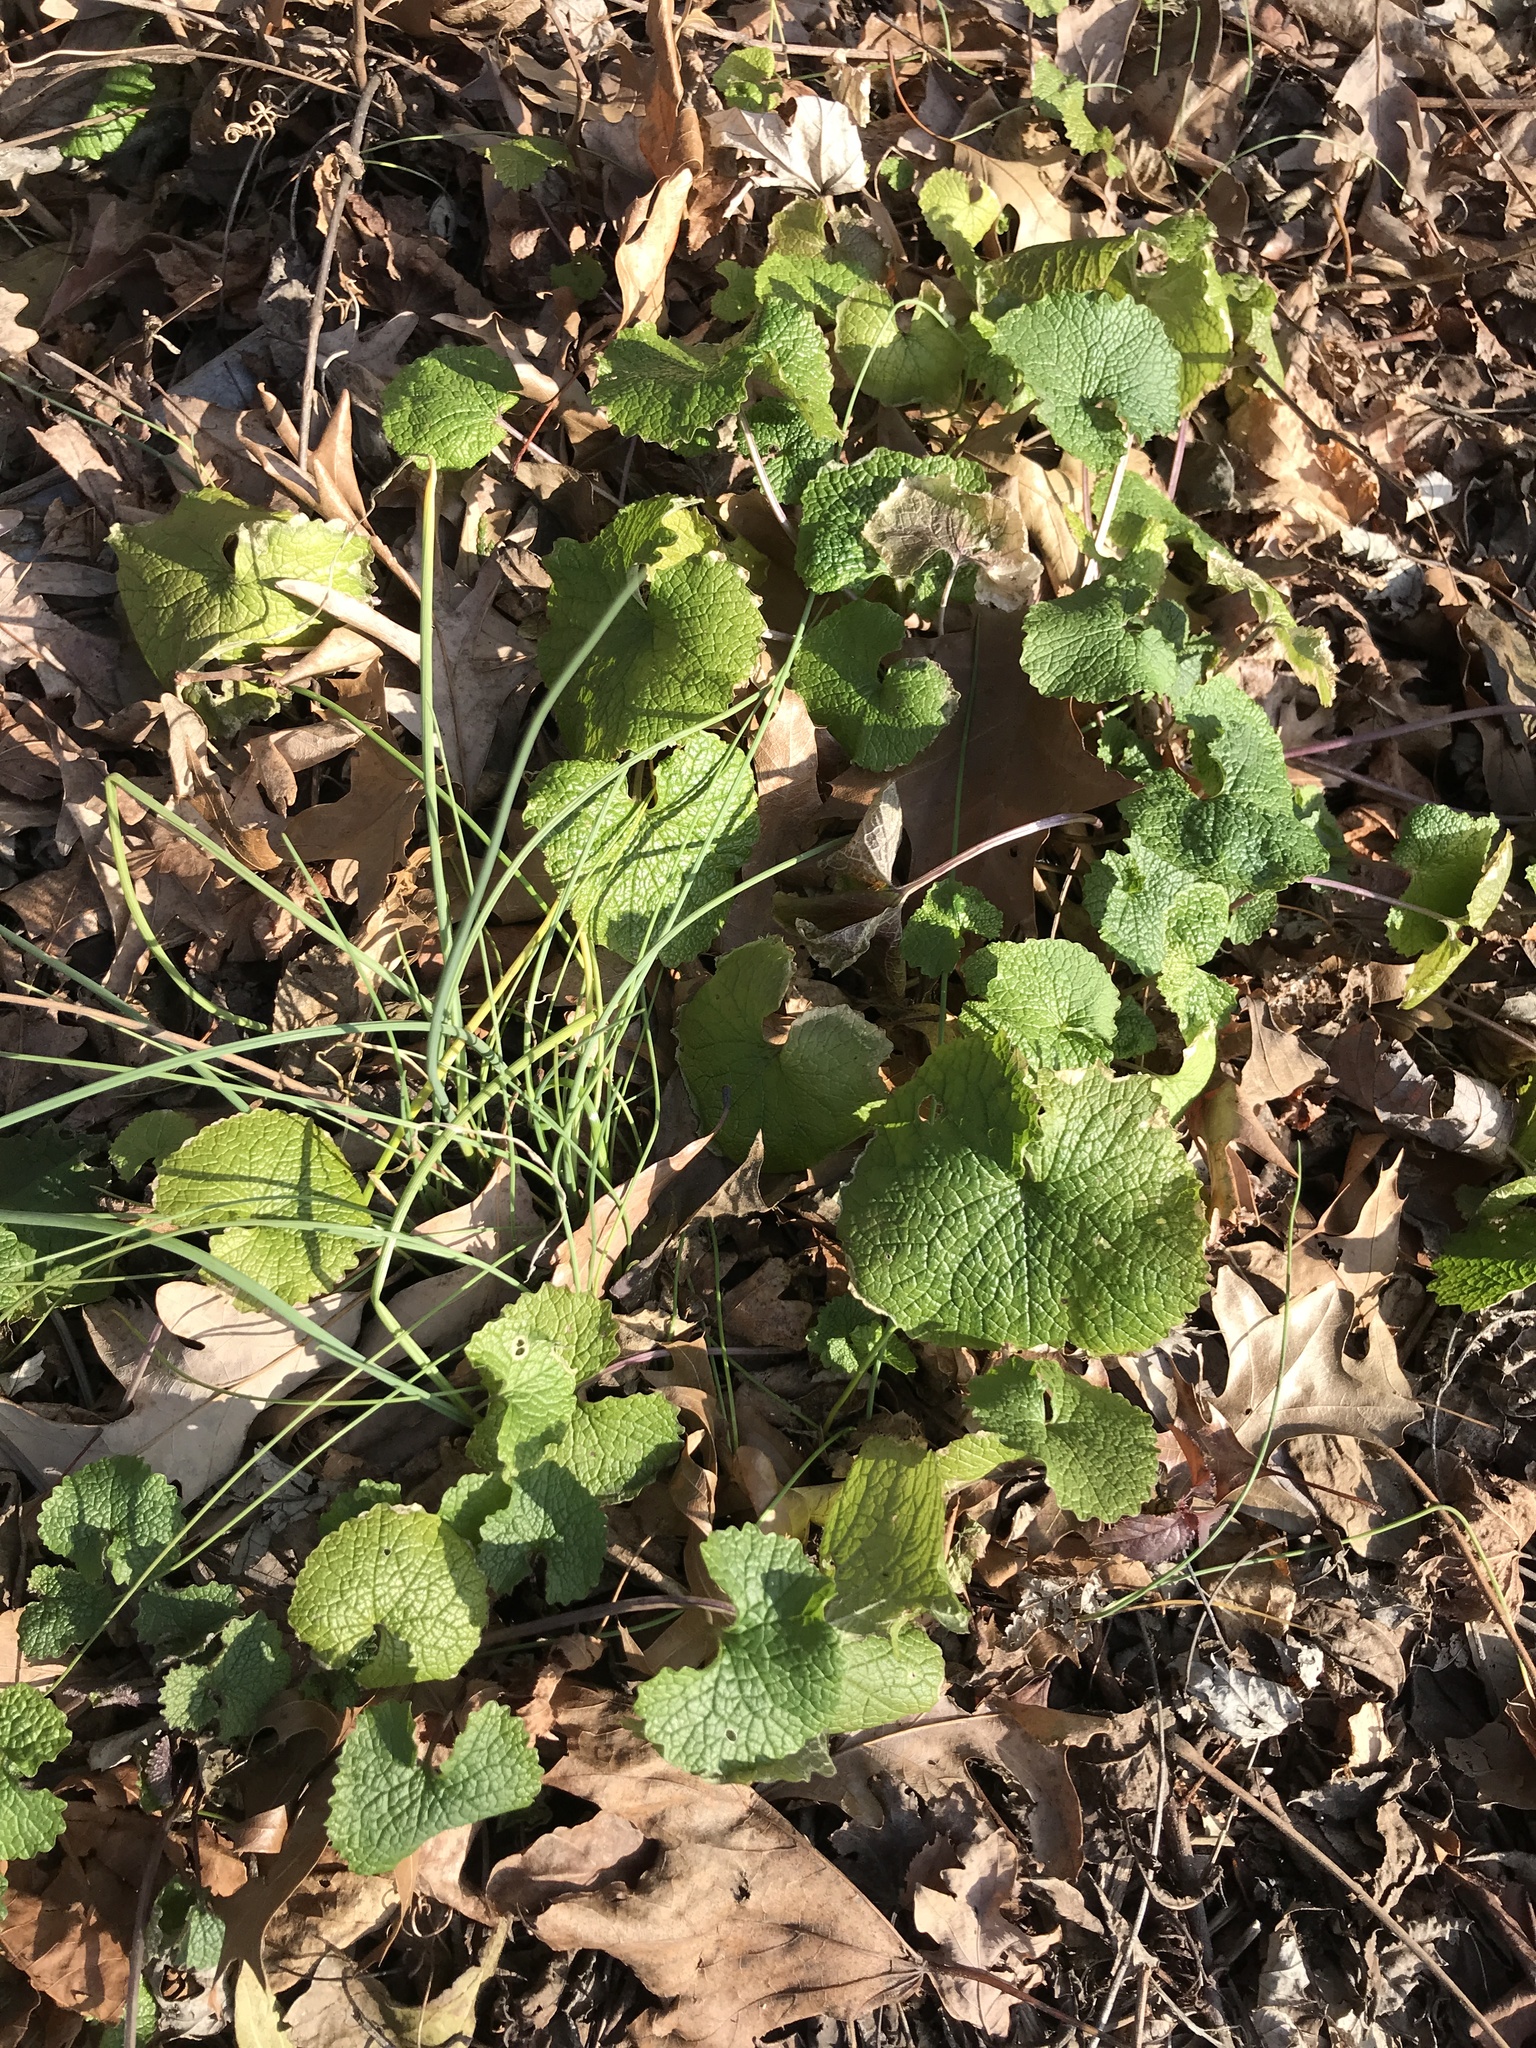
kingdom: Plantae
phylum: Tracheophyta
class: Magnoliopsida
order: Brassicales
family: Brassicaceae
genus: Alliaria
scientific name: Alliaria petiolata
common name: Garlic mustard
